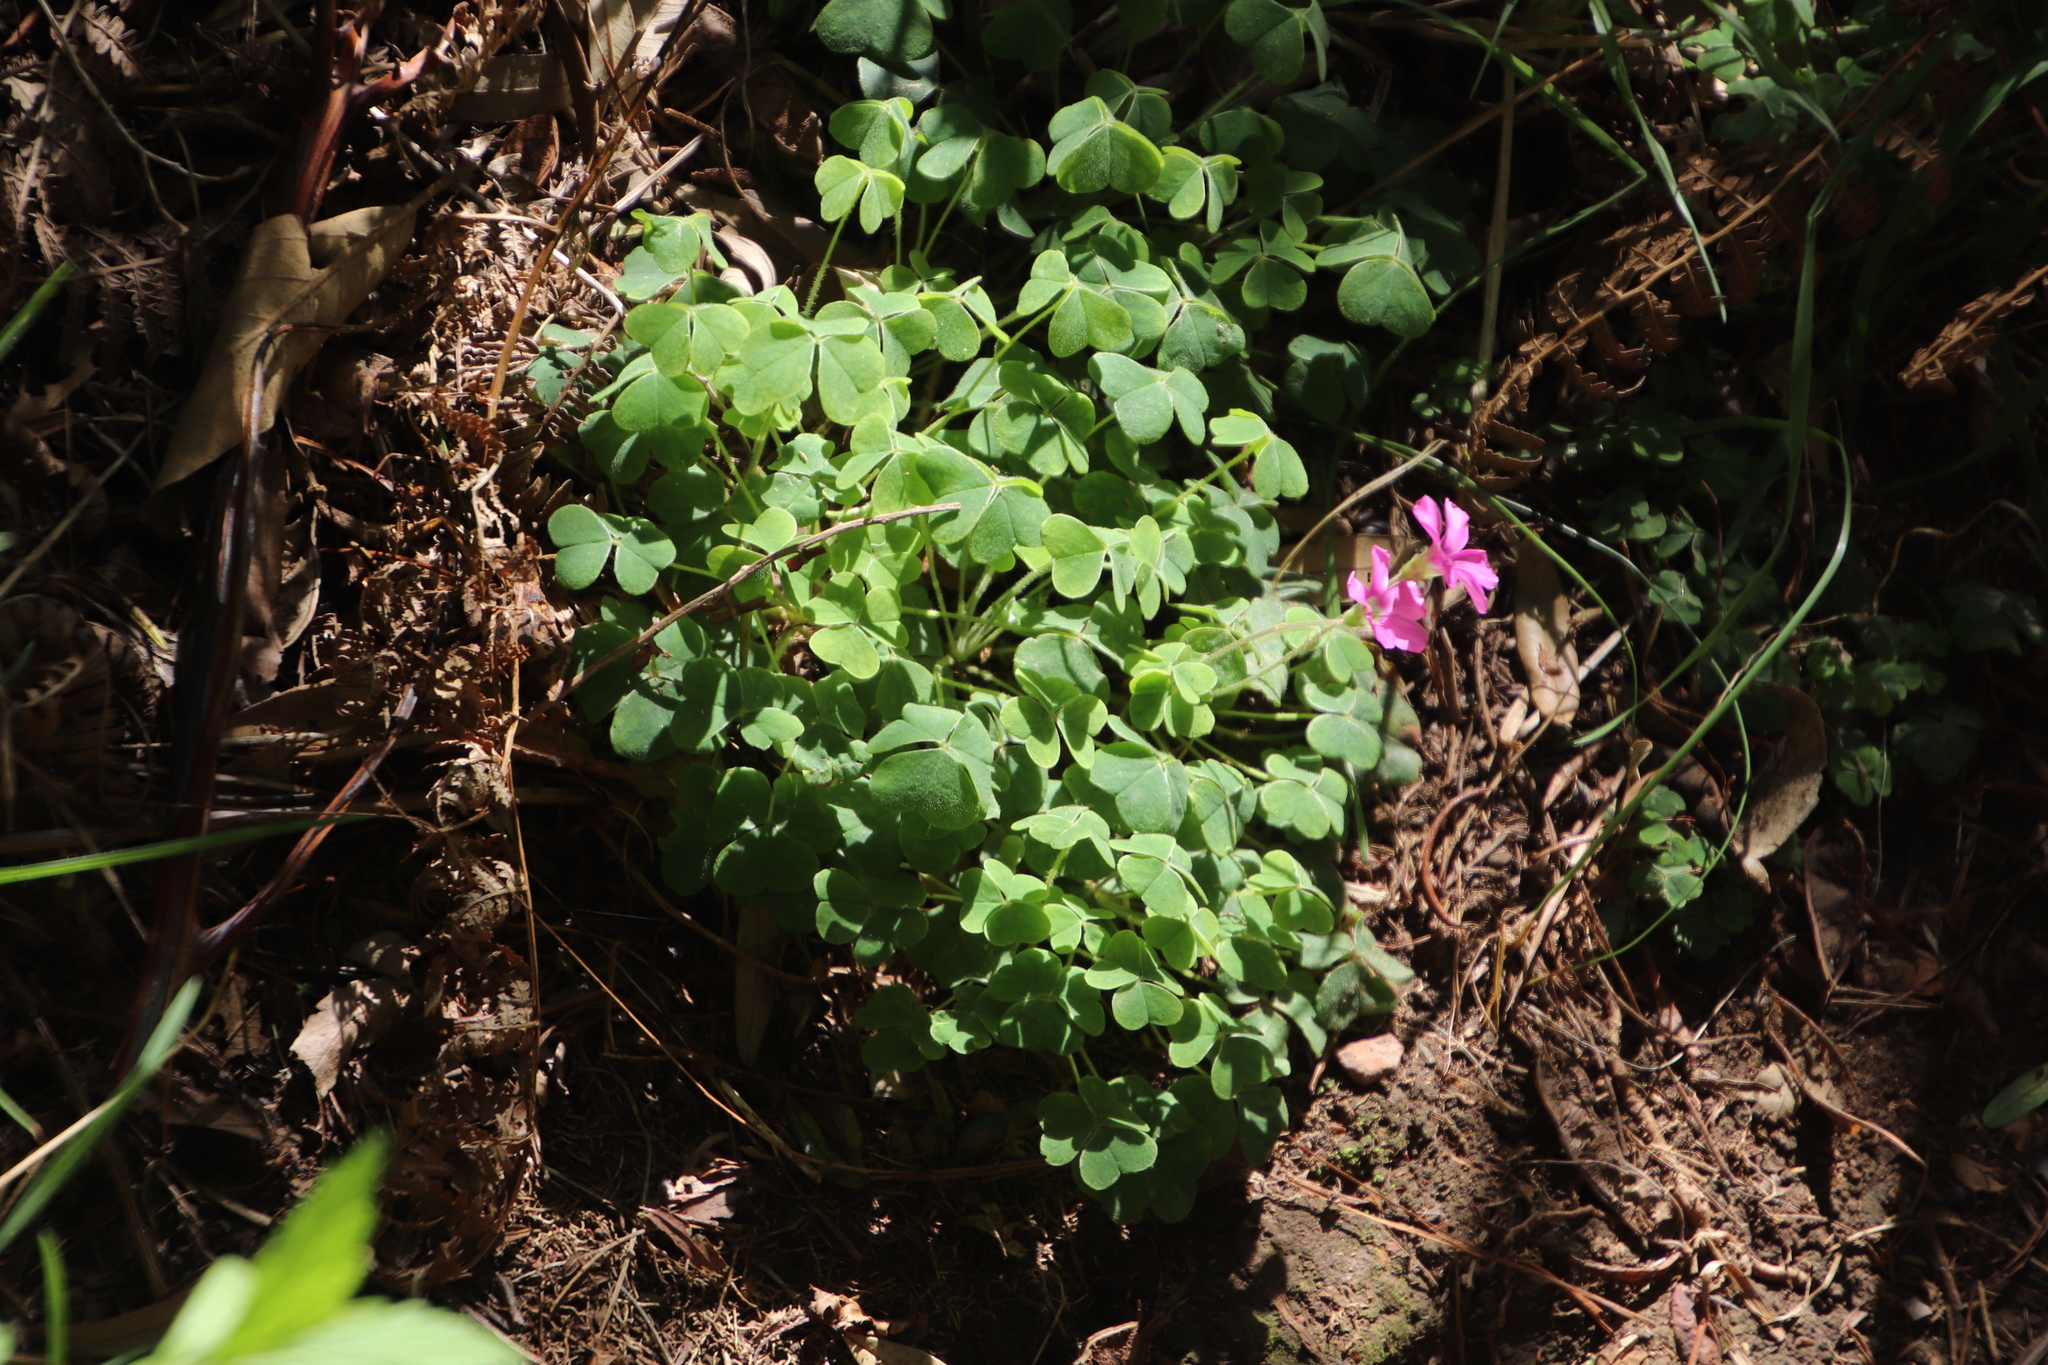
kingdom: Plantae
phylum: Tracheophyta
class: Magnoliopsida
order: Oxalidales
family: Oxalidaceae
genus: Oxalis
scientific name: Oxalis lanata
